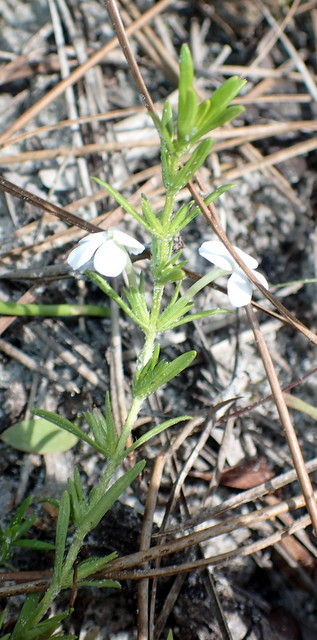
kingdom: Plantae
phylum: Tracheophyta
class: Magnoliopsida
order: Lamiales
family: Plantaginaceae
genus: Gratiola
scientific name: Gratiola hispida
